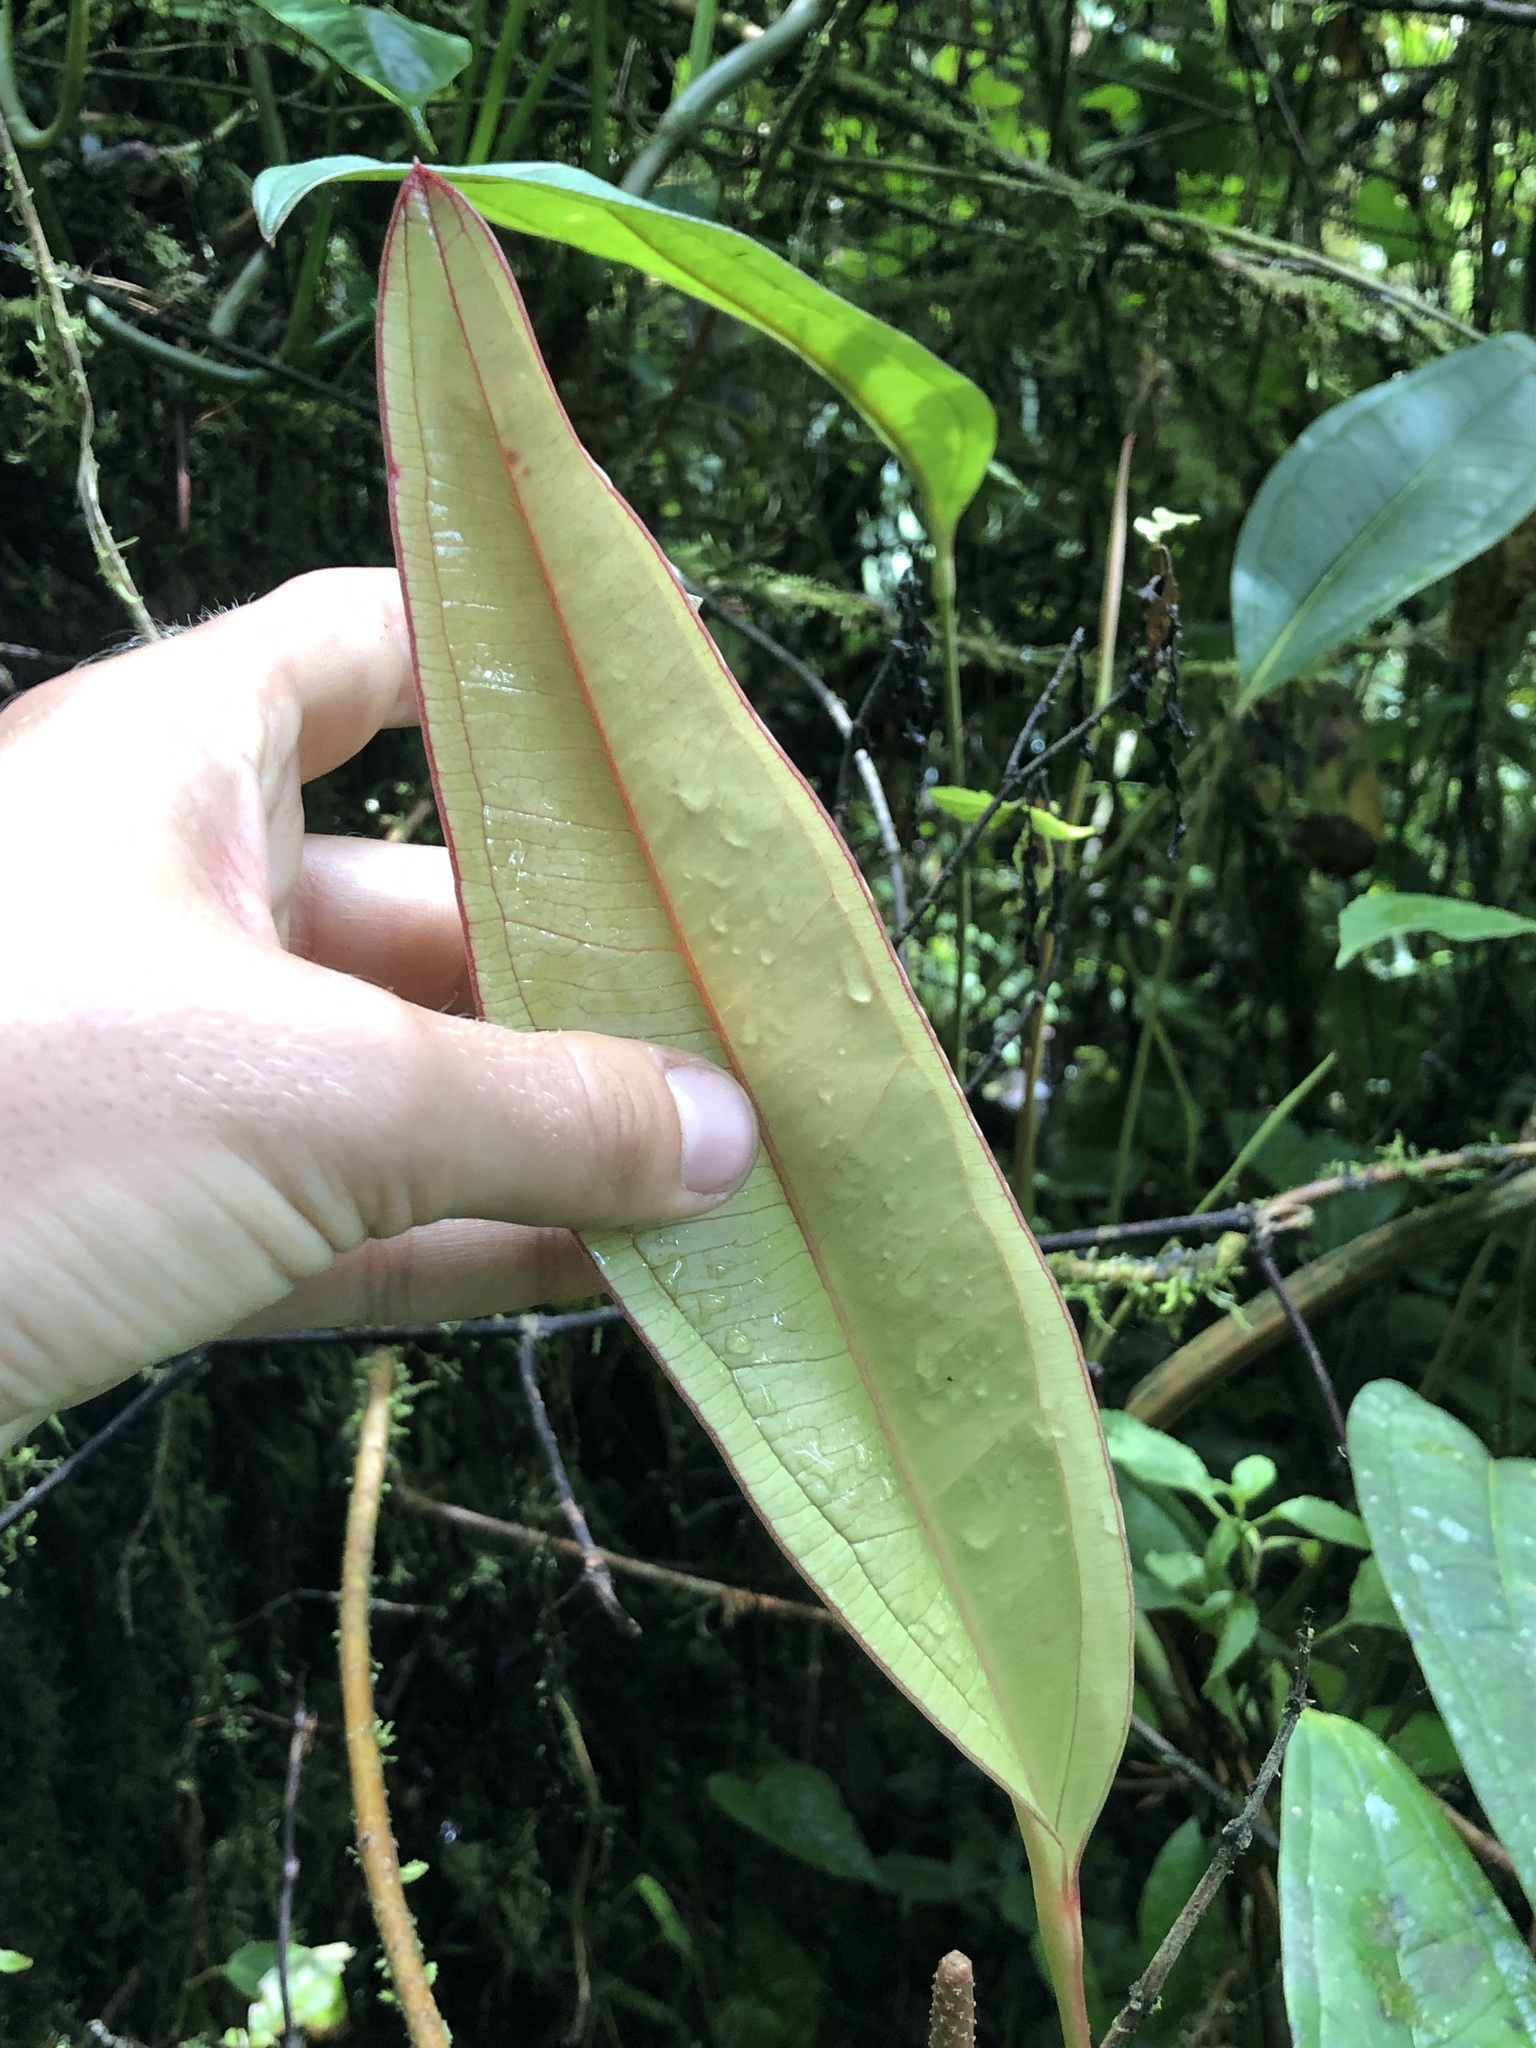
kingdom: Plantae
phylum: Tracheophyta
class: Liliopsida
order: Alismatales
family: Araceae
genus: Anthurium
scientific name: Anthurium caucanum
